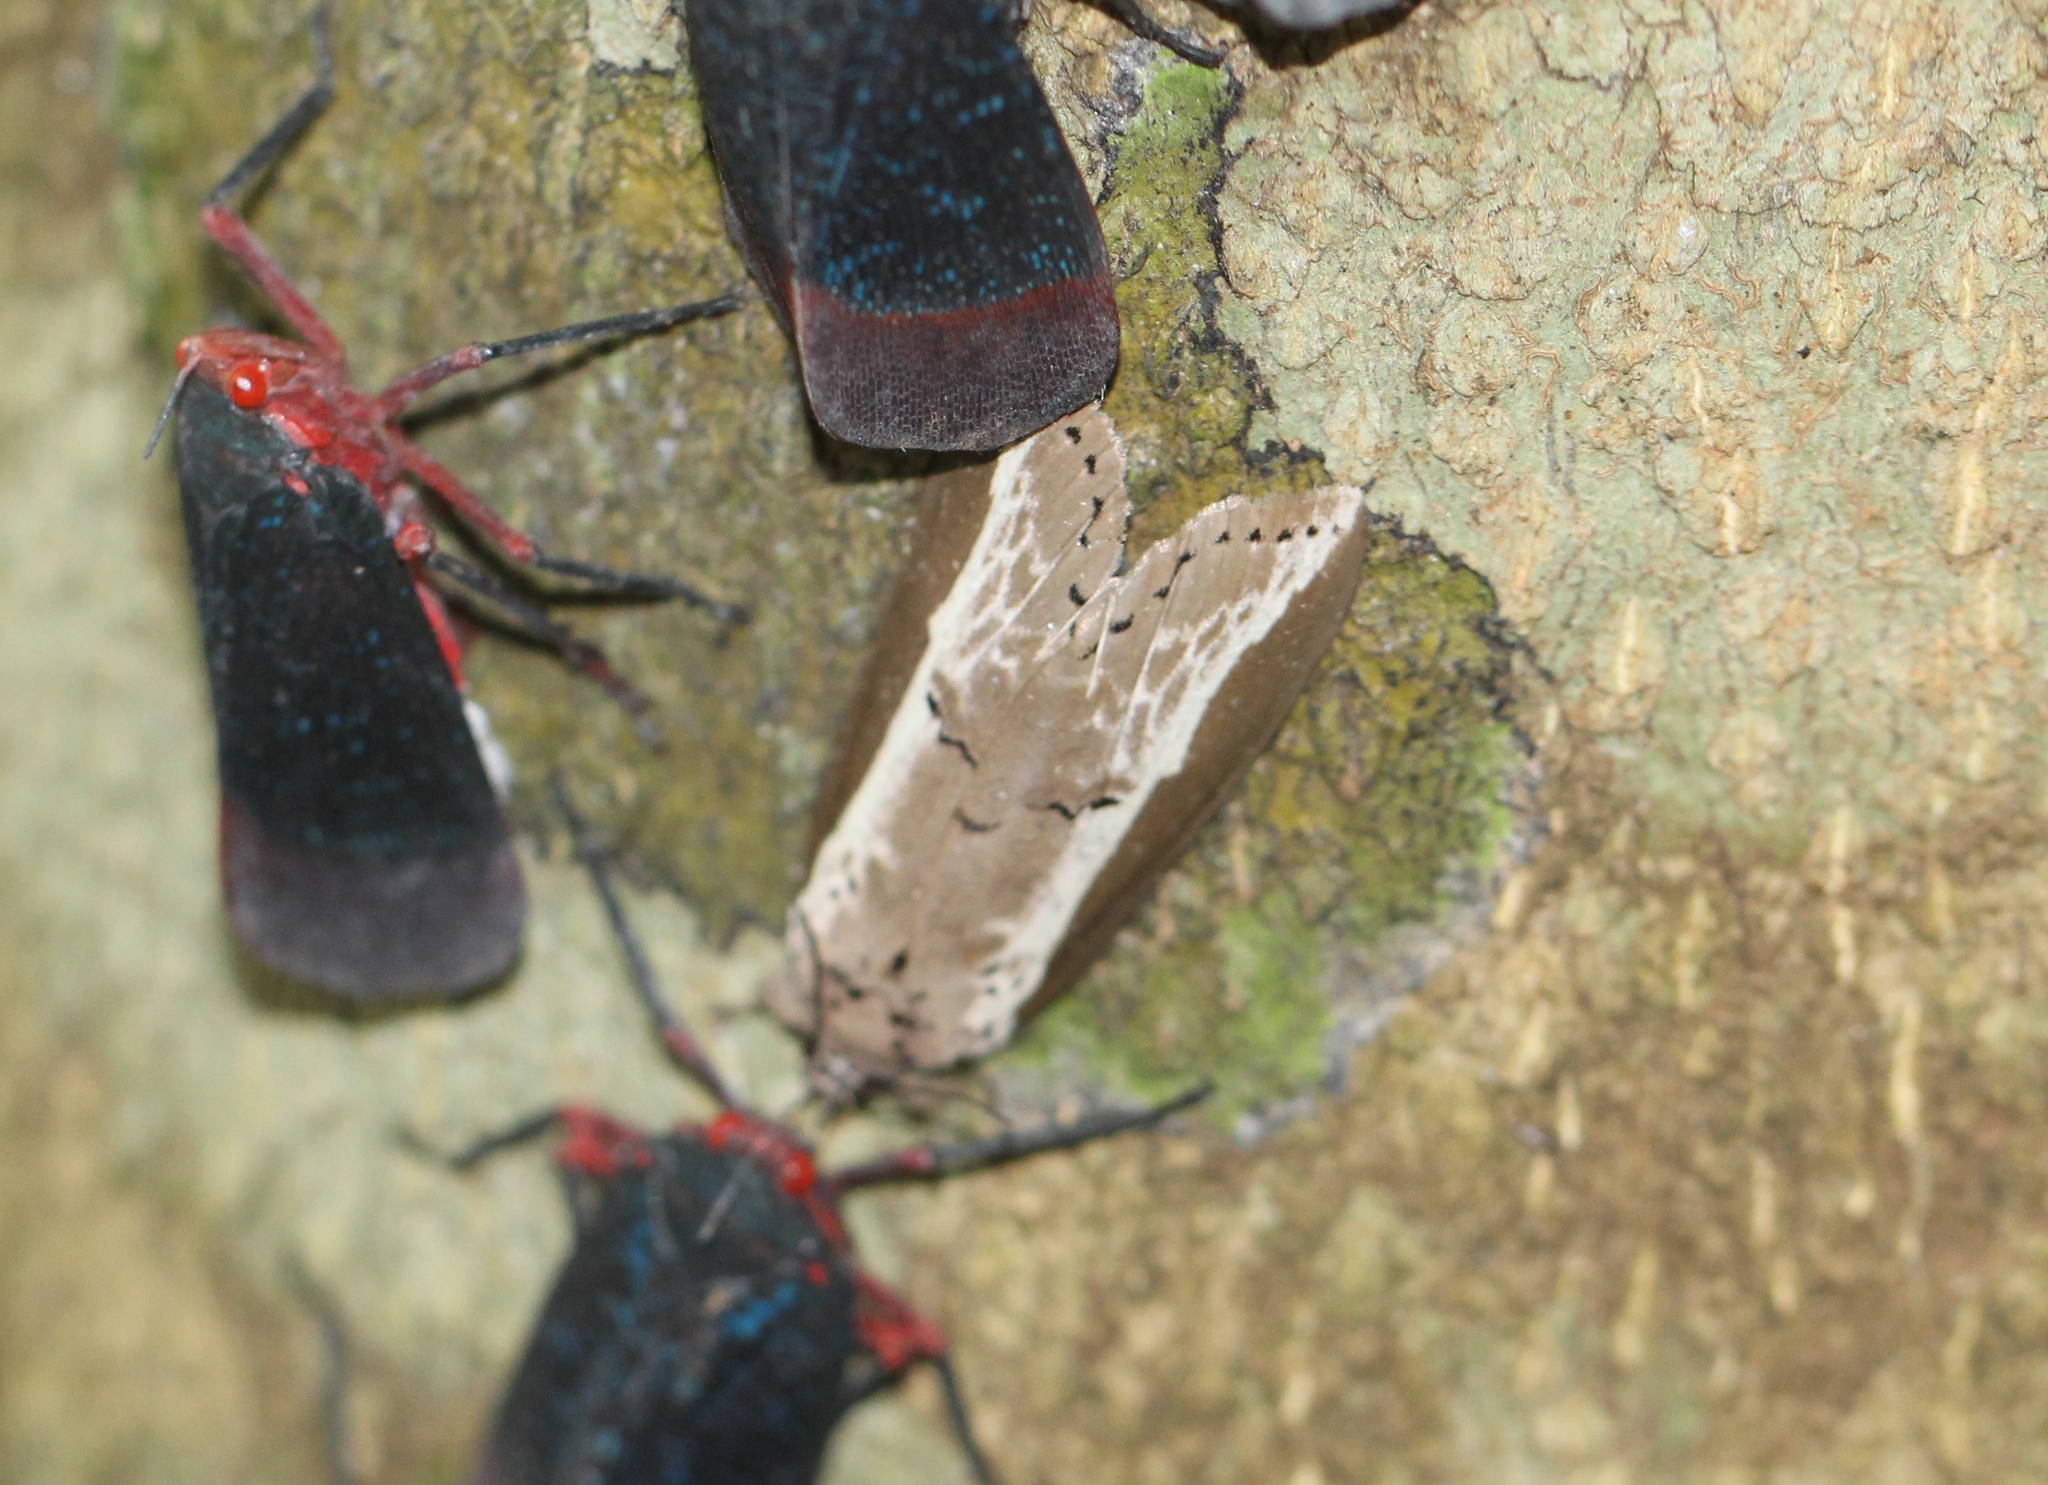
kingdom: Animalia
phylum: Arthropoda
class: Insecta
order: Lepidoptera
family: Nolidae
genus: Eligma
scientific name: Eligma narcissus
